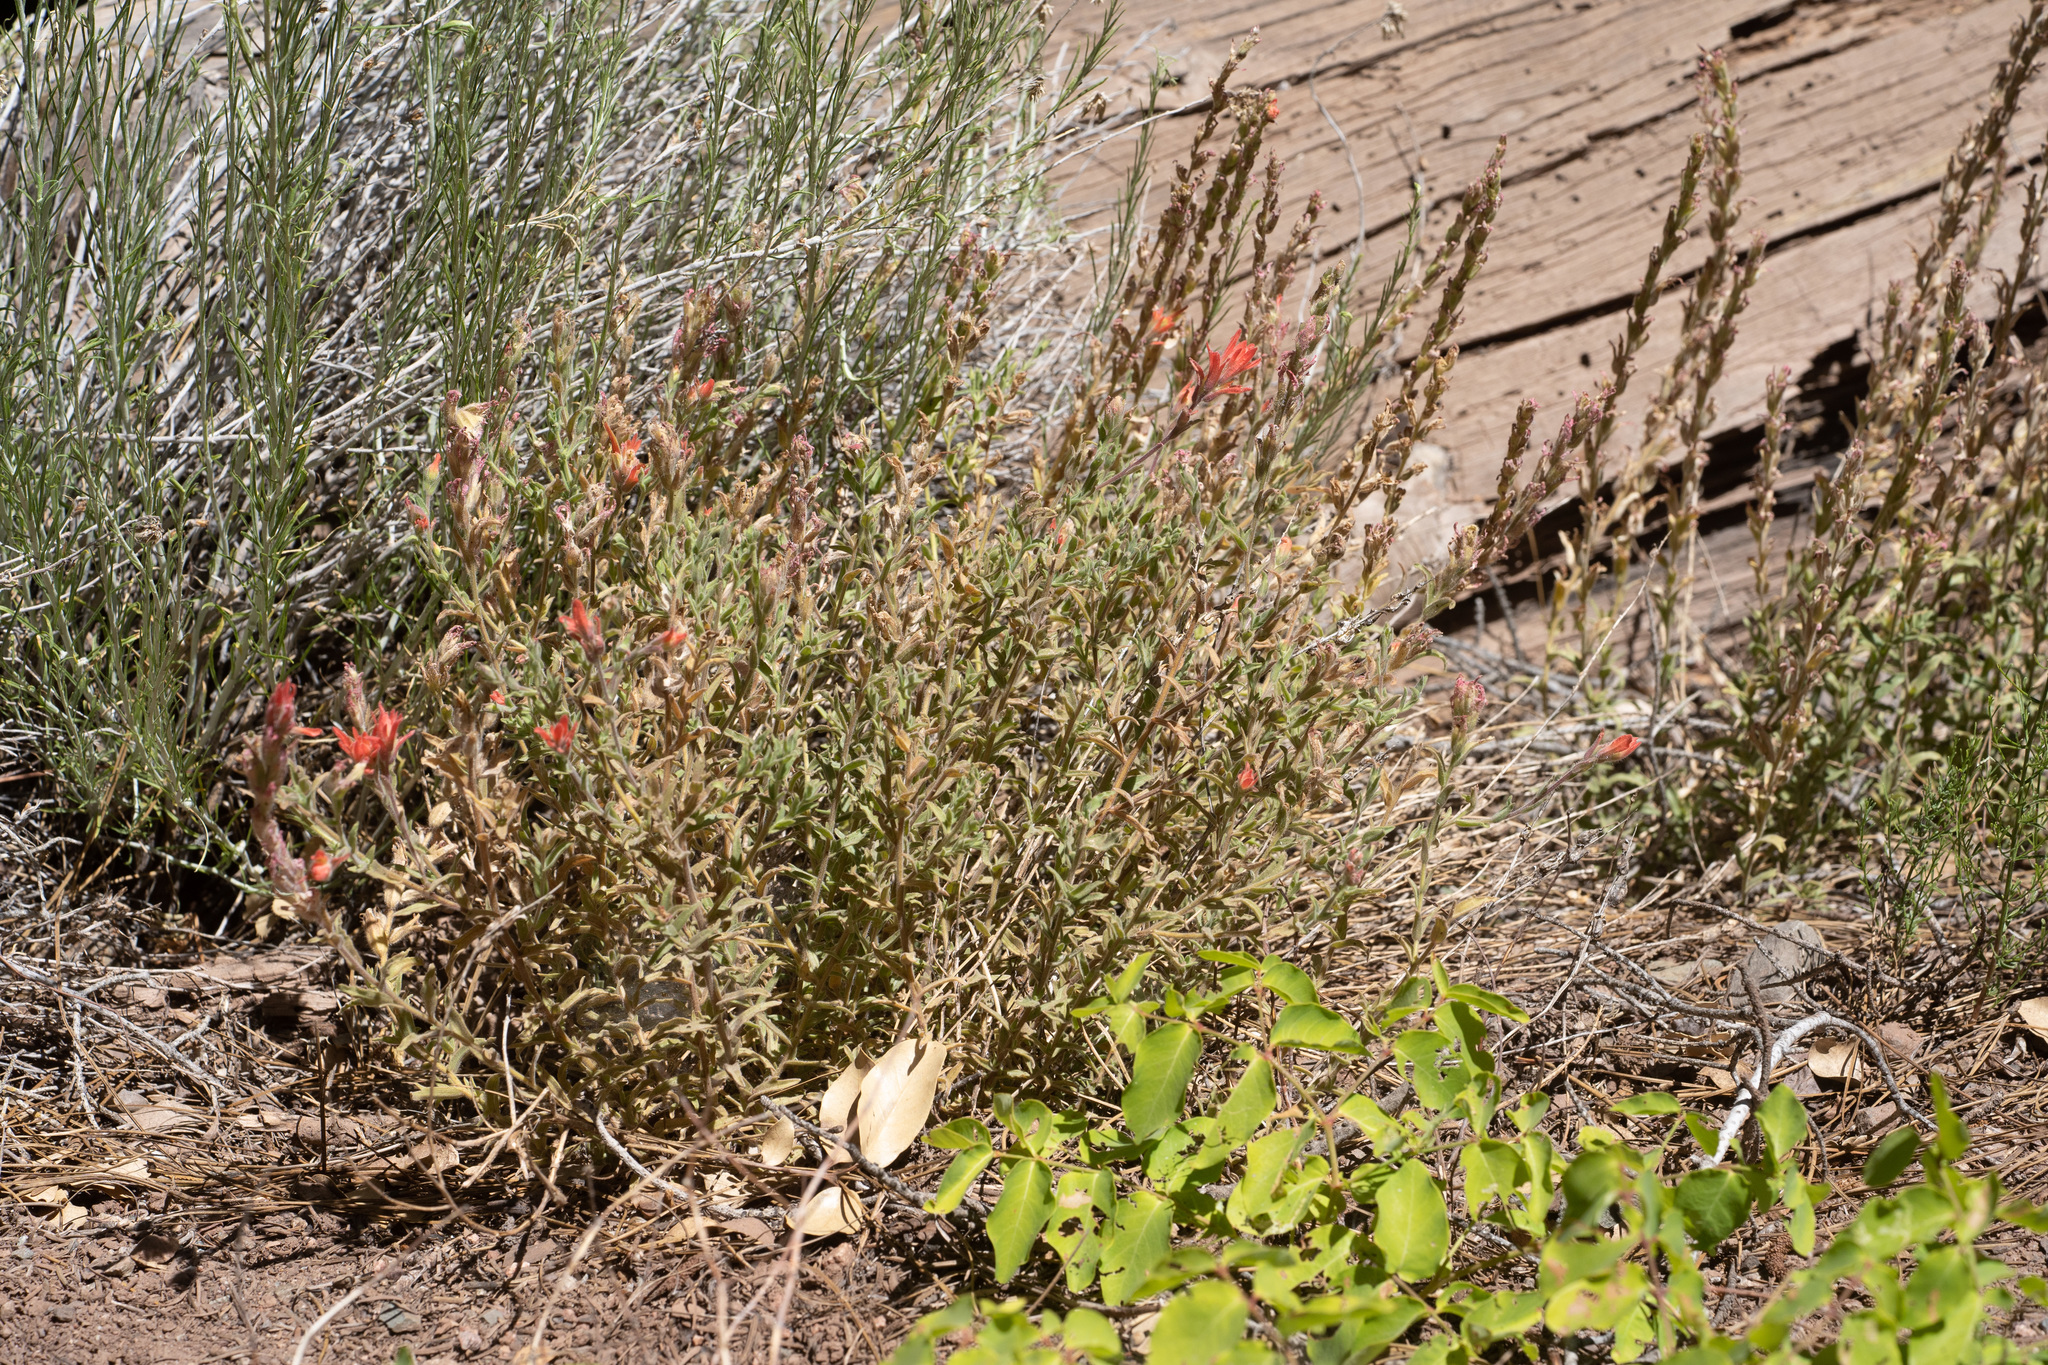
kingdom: Plantae
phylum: Tracheophyta
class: Magnoliopsida
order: Lamiales
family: Orobanchaceae
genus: Castilleja
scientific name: Castilleja martini
